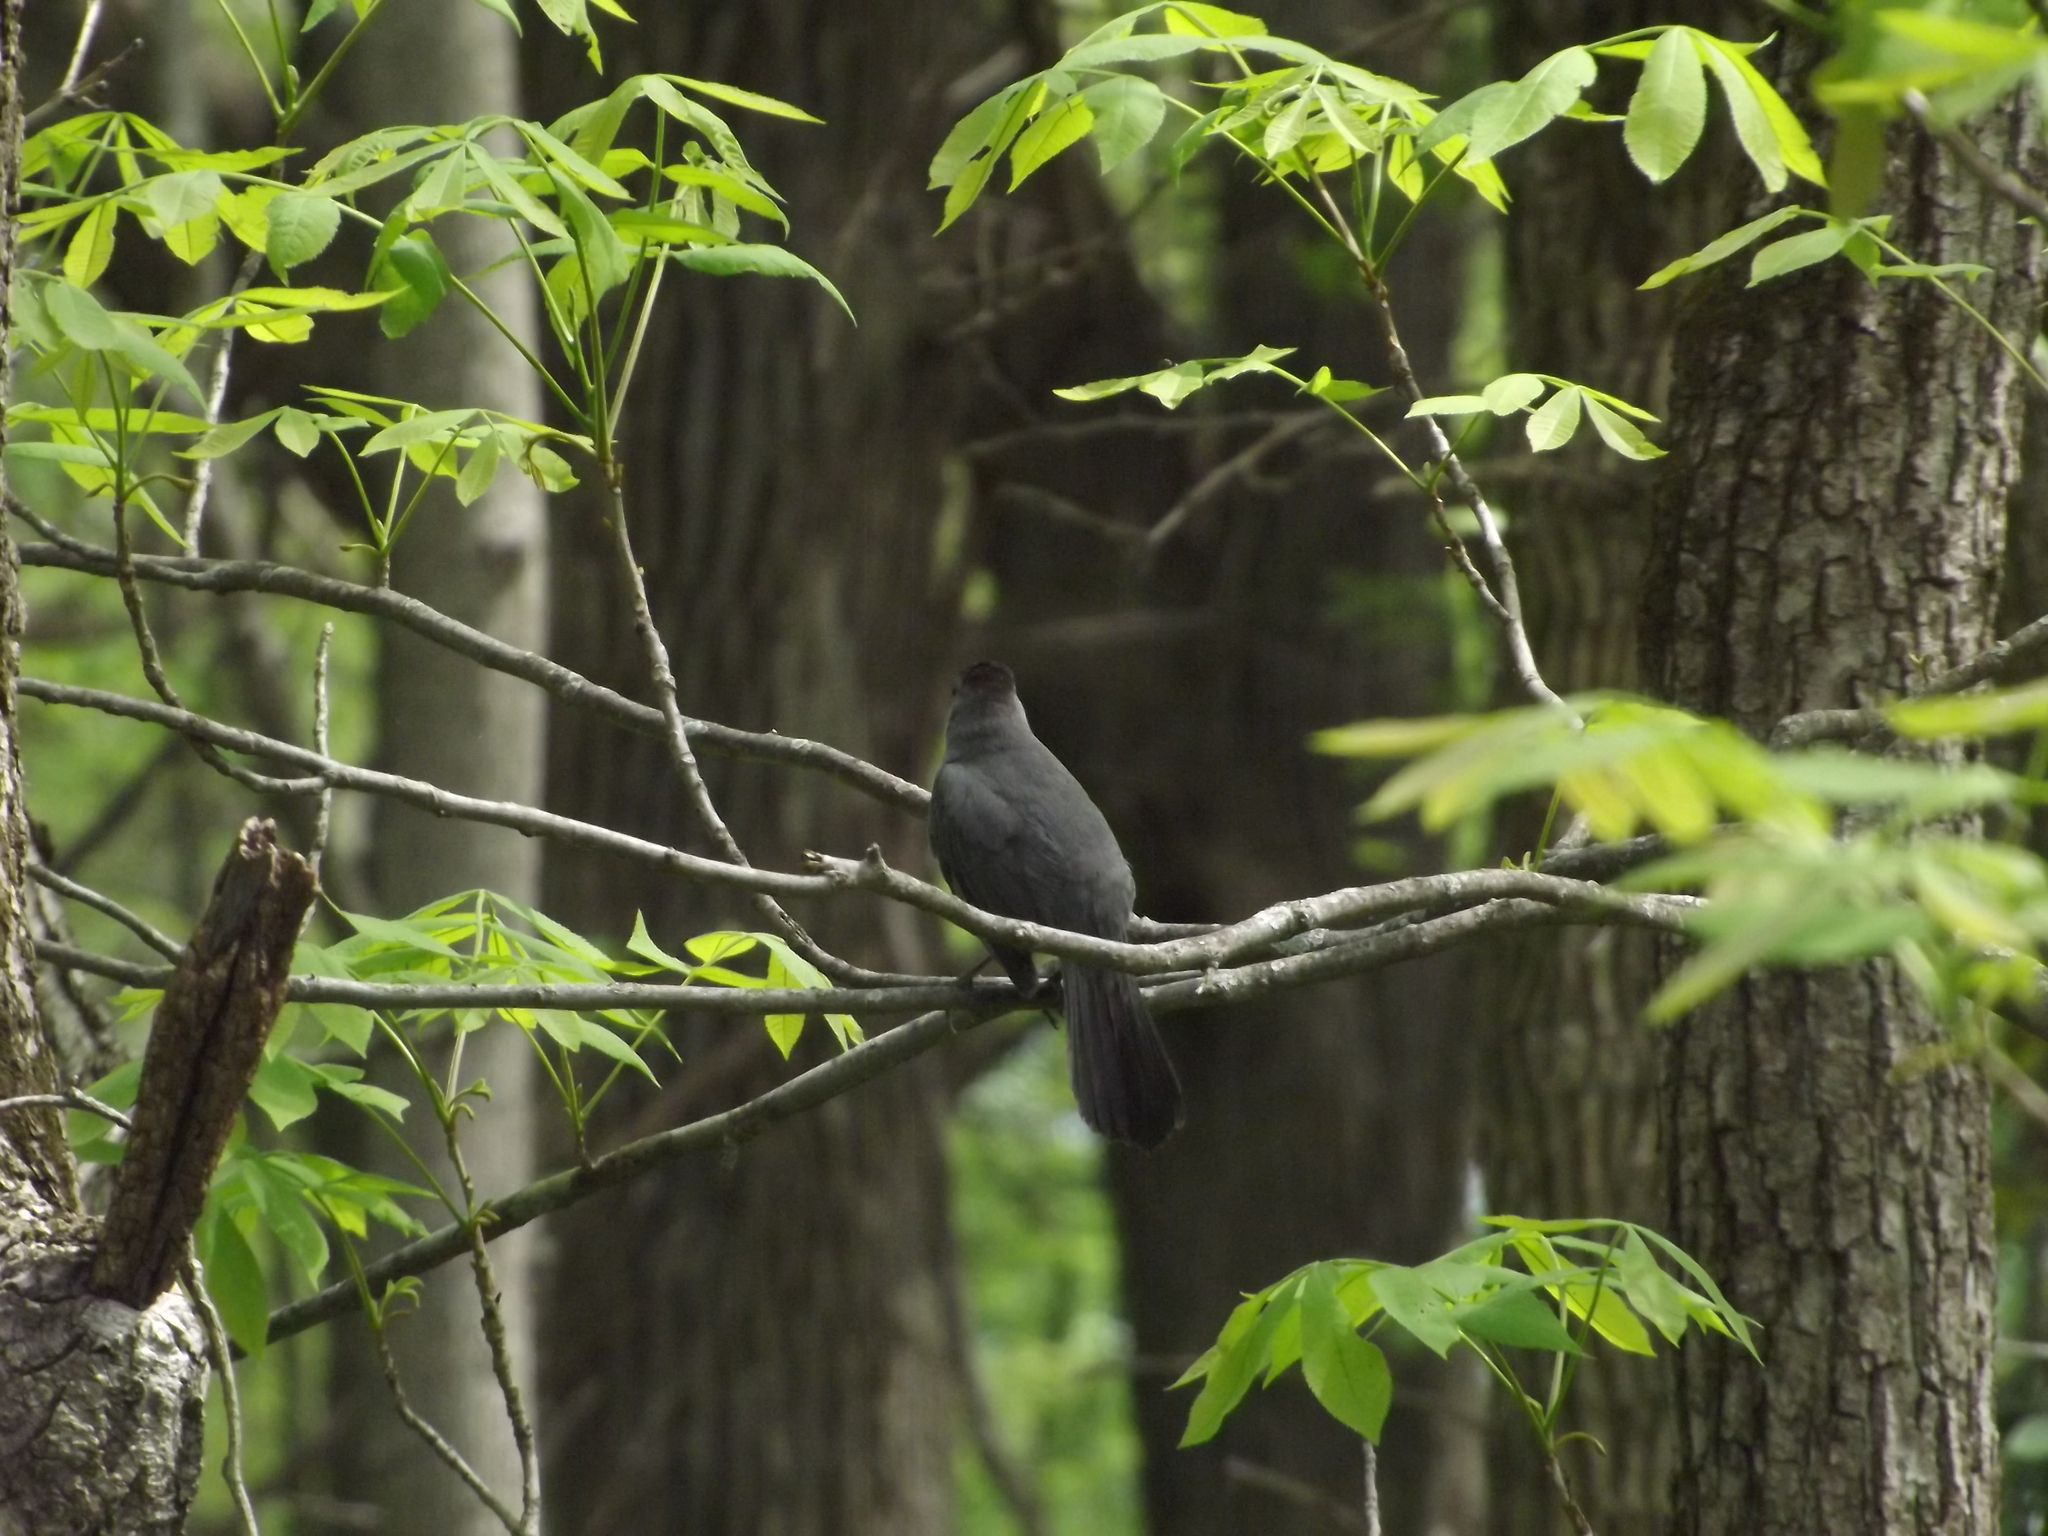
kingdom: Animalia
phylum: Chordata
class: Aves
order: Passeriformes
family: Mimidae
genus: Dumetella
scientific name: Dumetella carolinensis
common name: Gray catbird
